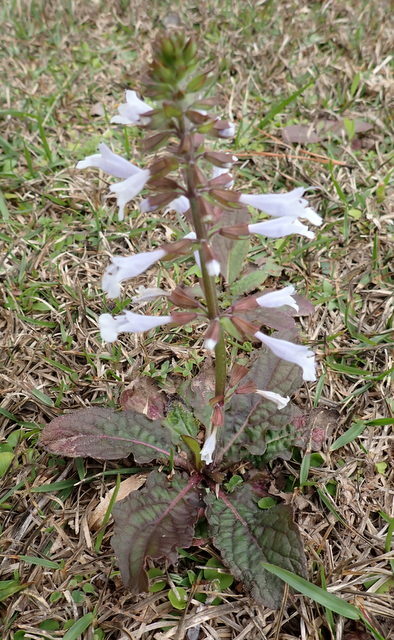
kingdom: Plantae
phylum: Tracheophyta
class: Magnoliopsida
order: Lamiales
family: Lamiaceae
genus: Salvia
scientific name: Salvia lyrata
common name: Cancerweed
